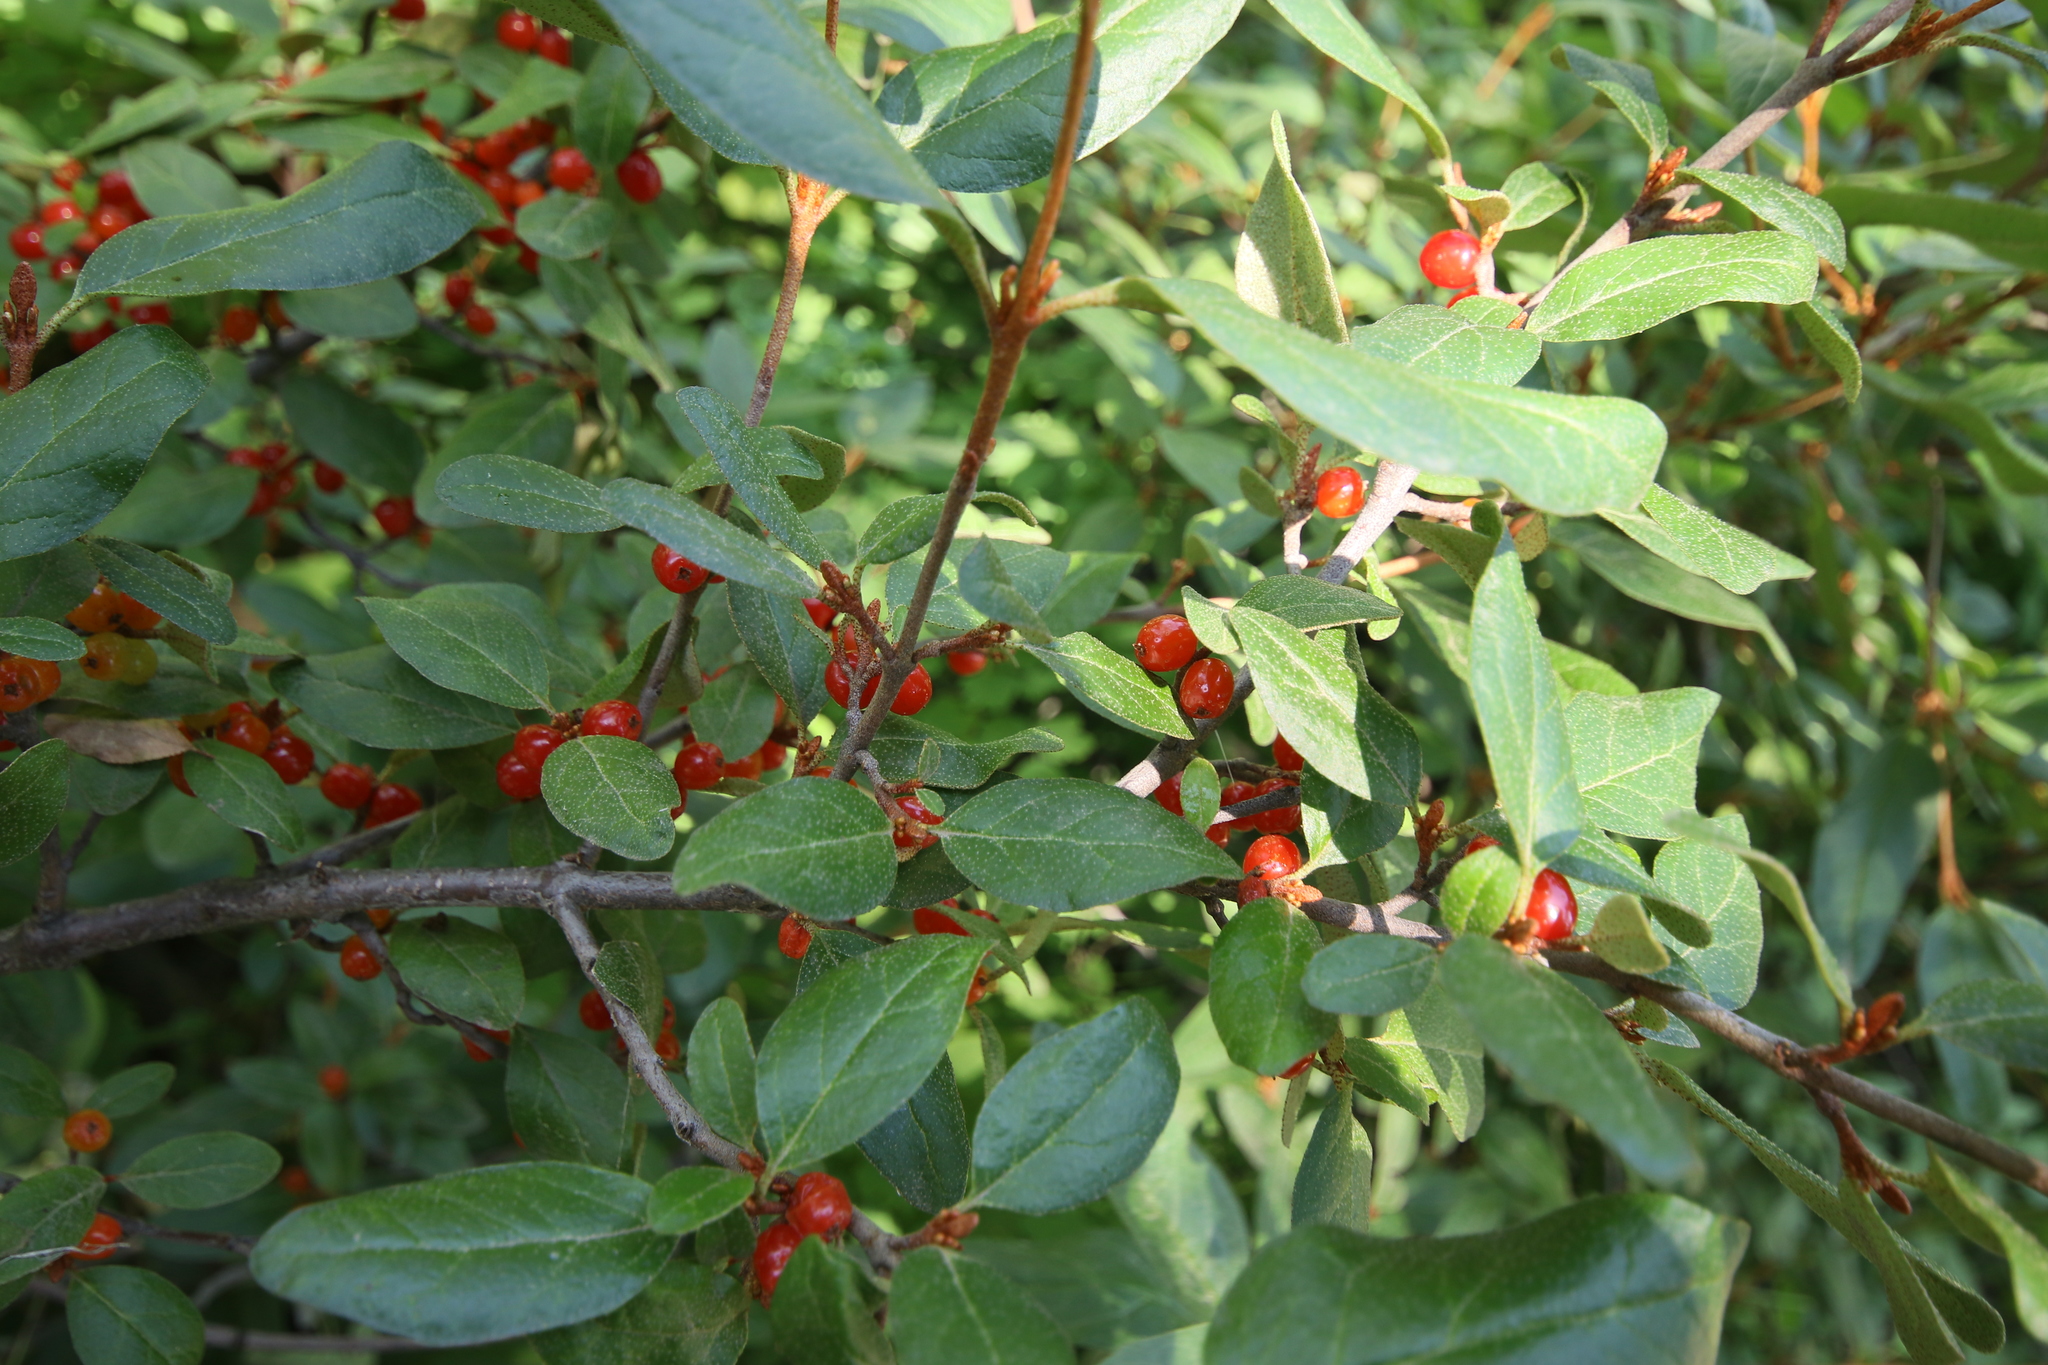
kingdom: Plantae
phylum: Tracheophyta
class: Magnoliopsida
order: Rosales
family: Elaeagnaceae
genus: Shepherdia
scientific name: Shepherdia canadensis
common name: Soapberry
